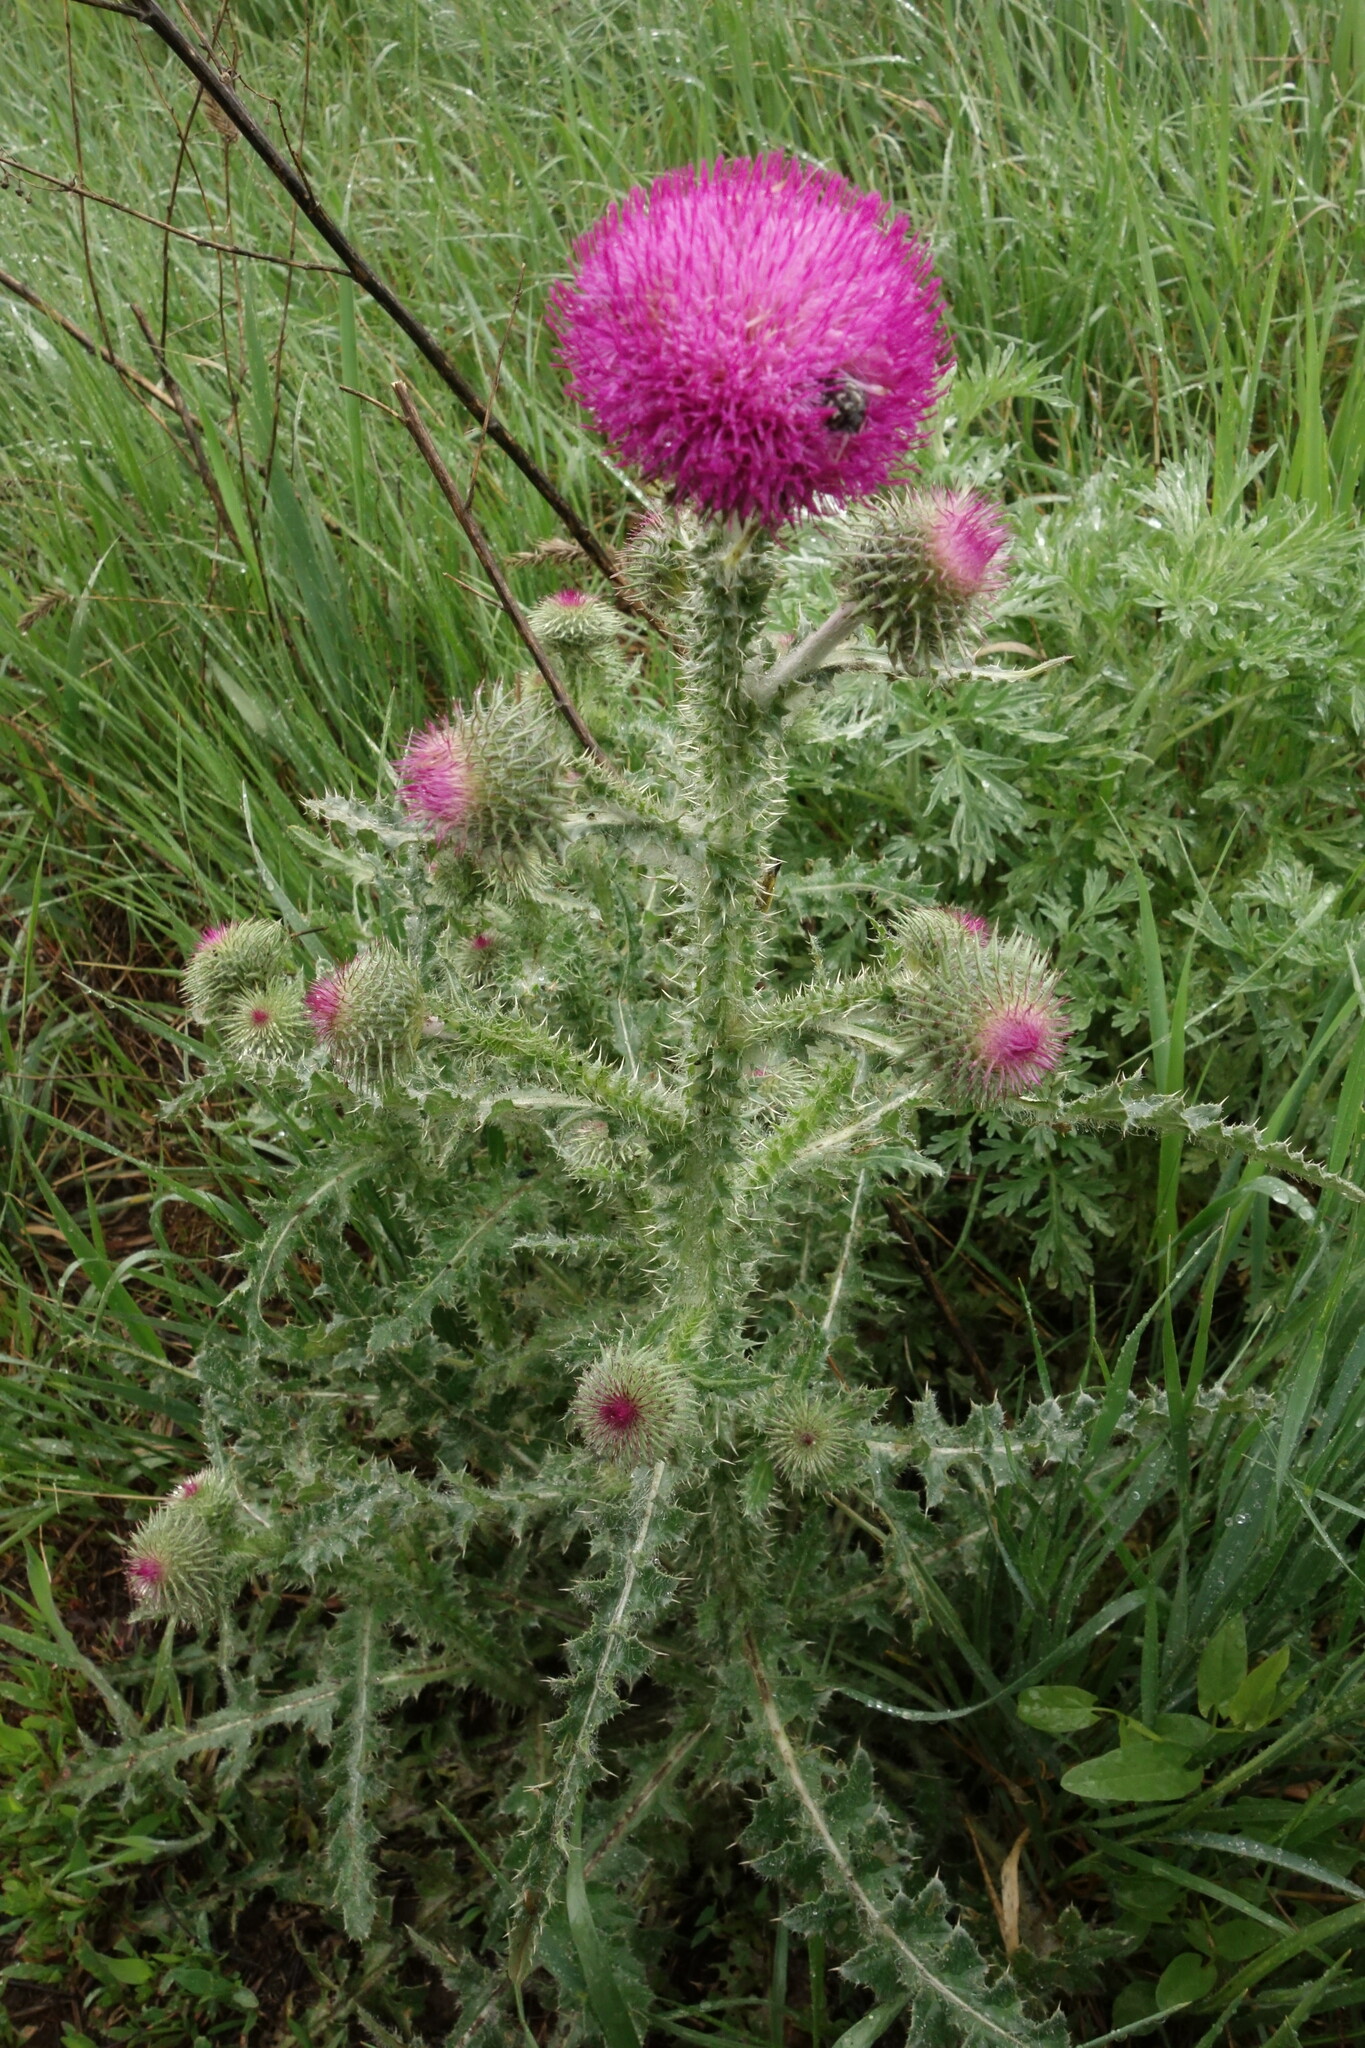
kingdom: Plantae
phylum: Tracheophyta
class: Magnoliopsida
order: Asterales
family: Asteraceae
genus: Carduus
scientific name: Carduus uncinatus
